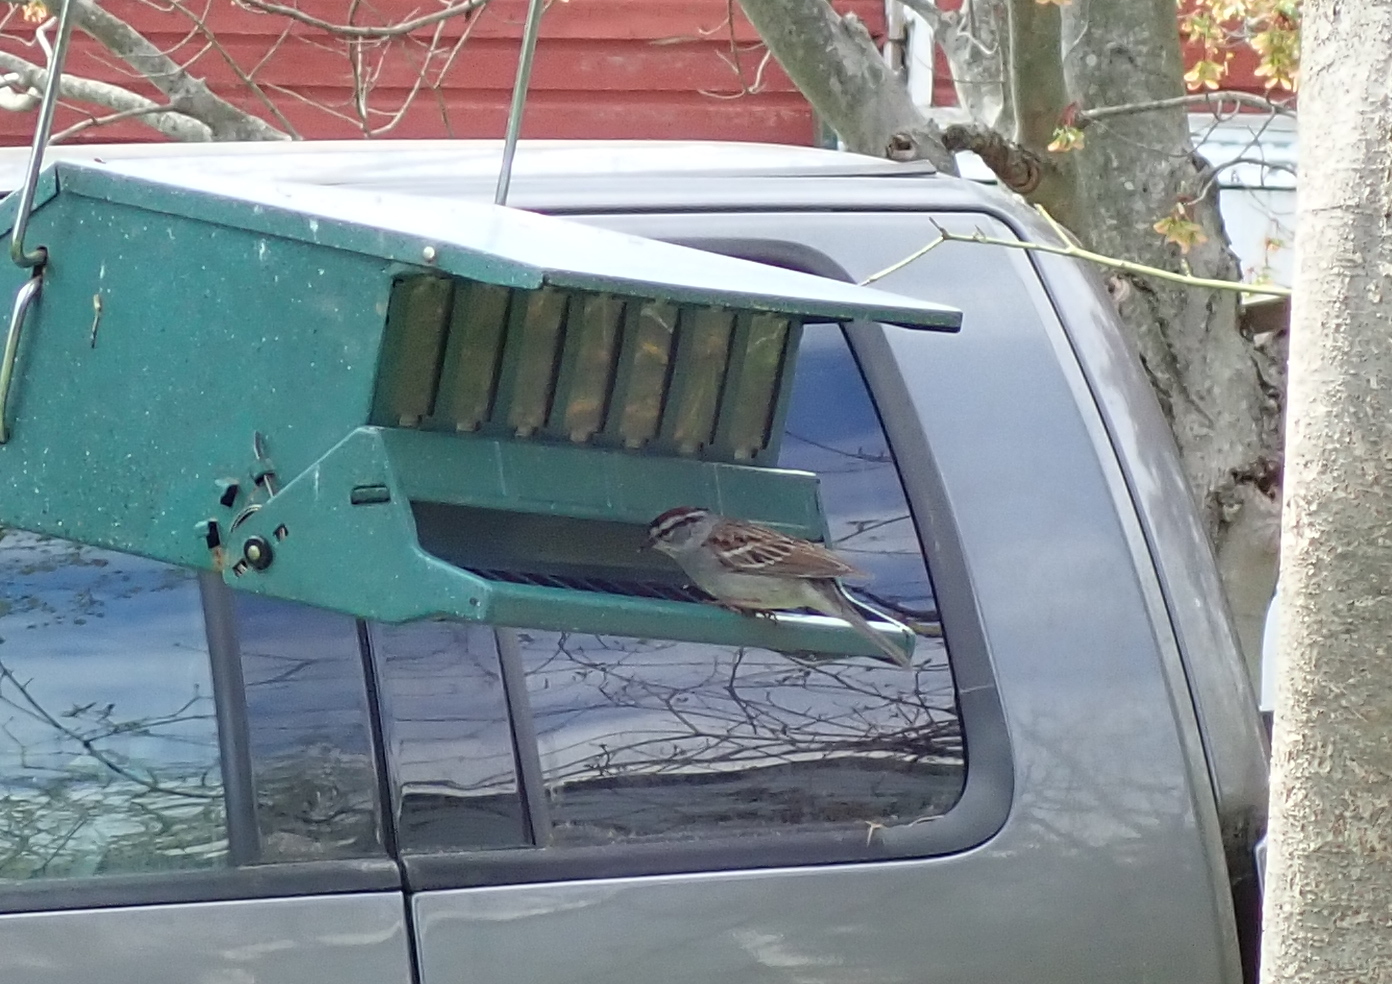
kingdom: Animalia
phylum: Chordata
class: Aves
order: Passeriformes
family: Passerellidae
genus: Spizella
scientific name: Spizella passerina
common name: Chipping sparrow
